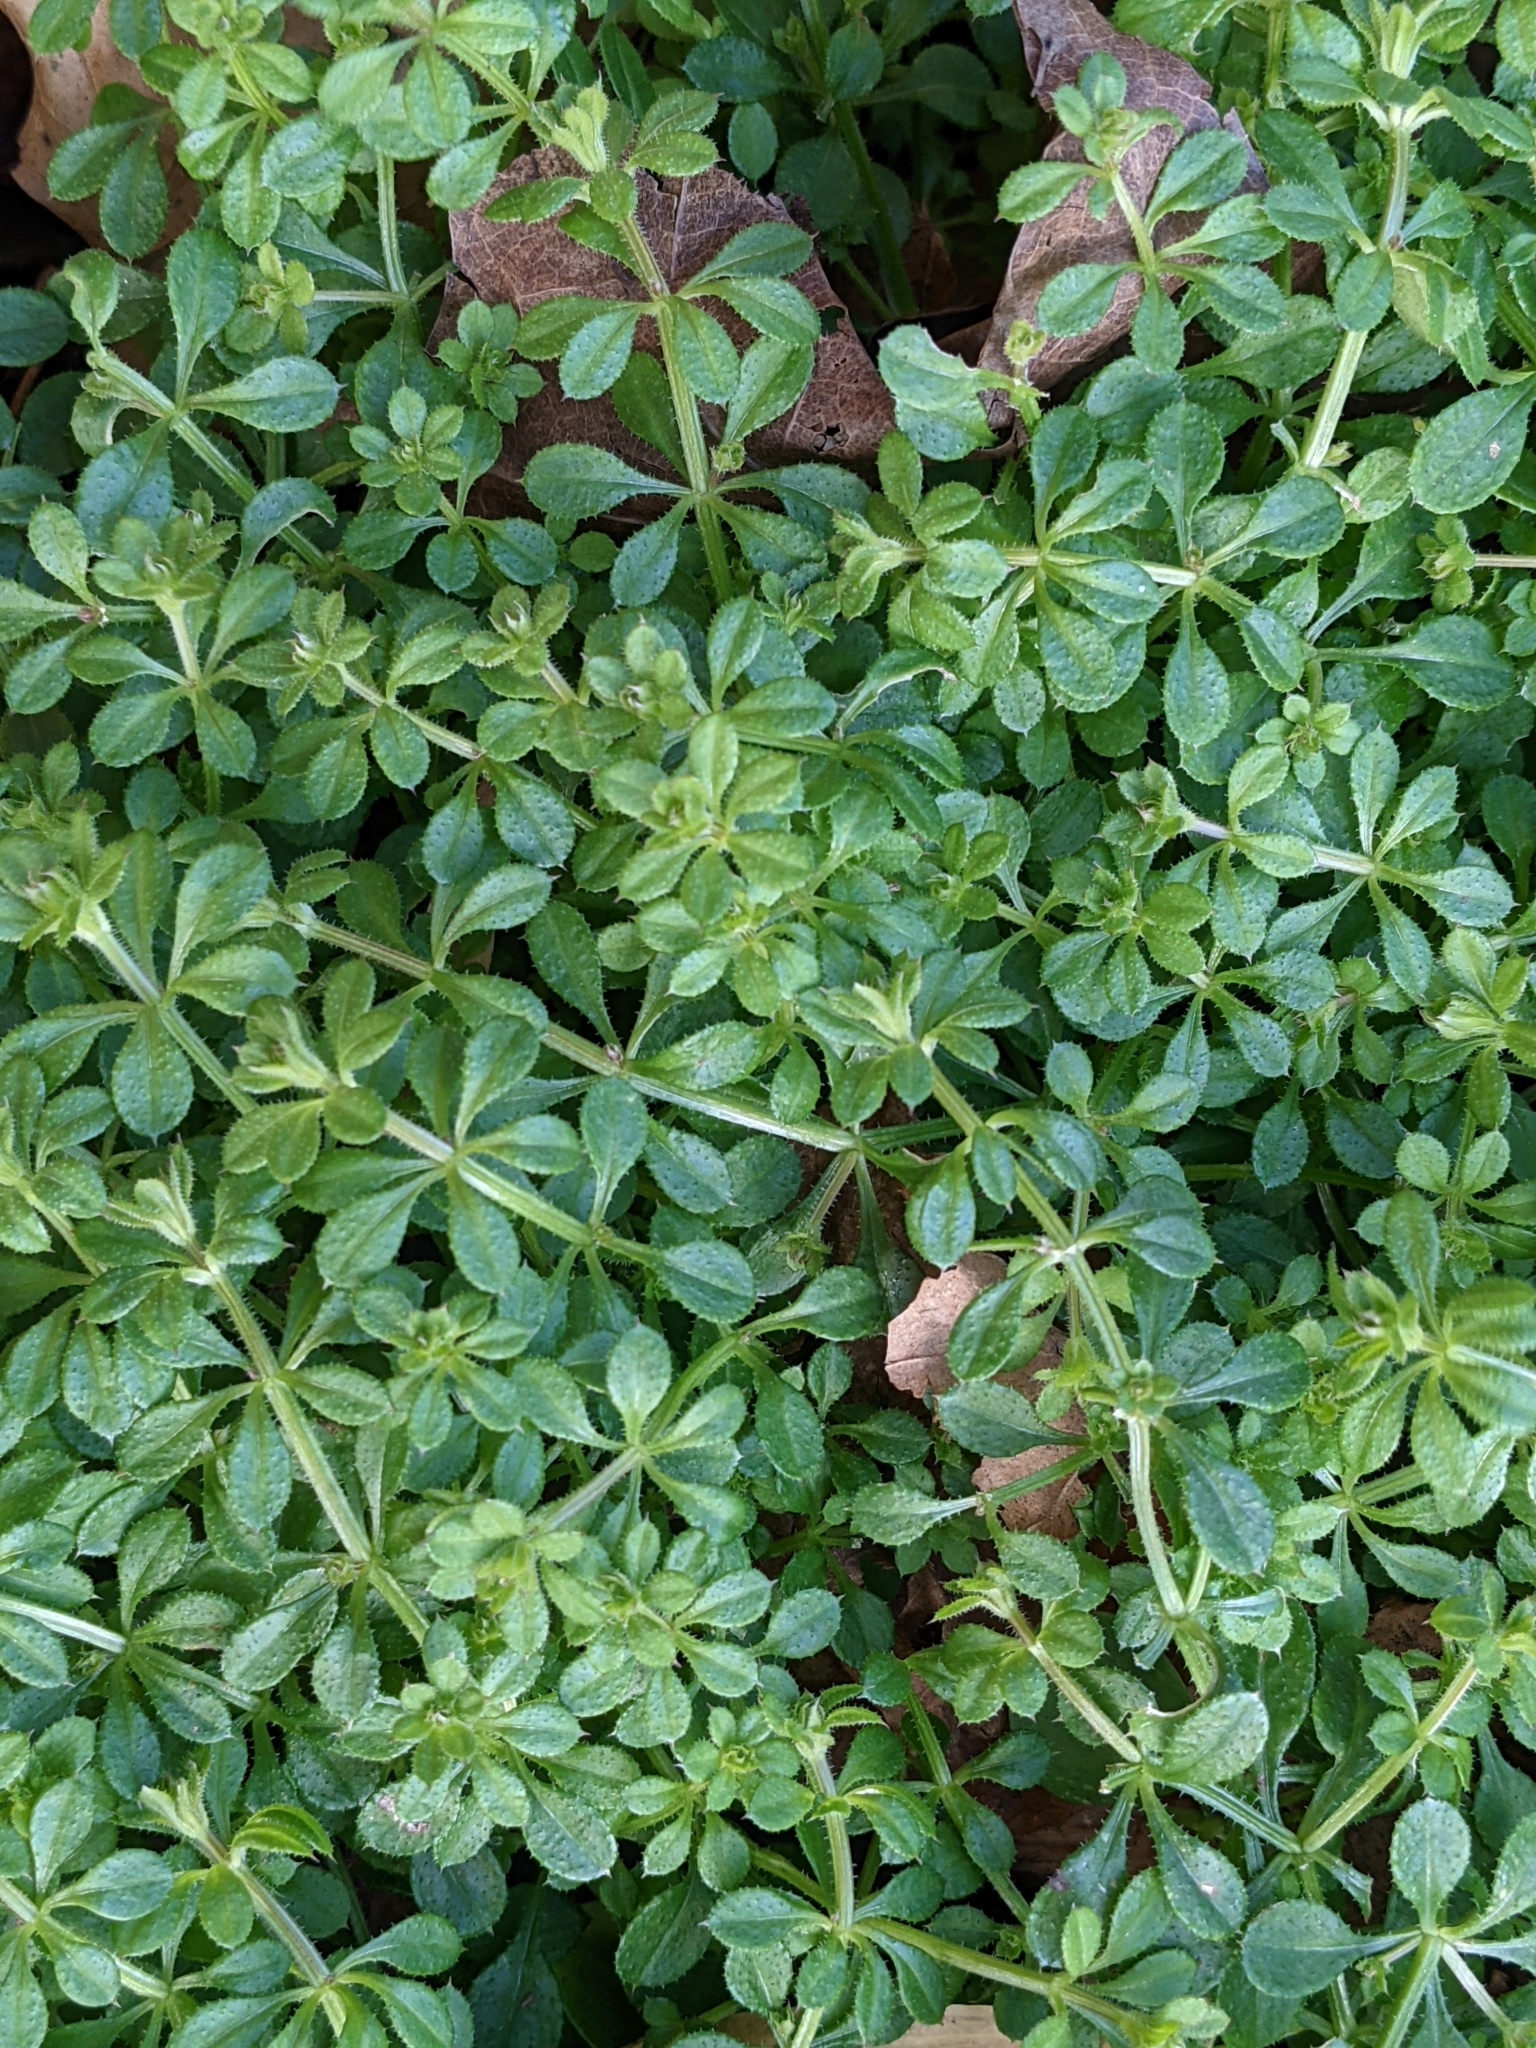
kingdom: Plantae
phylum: Tracheophyta
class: Magnoliopsida
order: Gentianales
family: Rubiaceae
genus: Galium
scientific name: Galium aparine
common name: Cleavers
